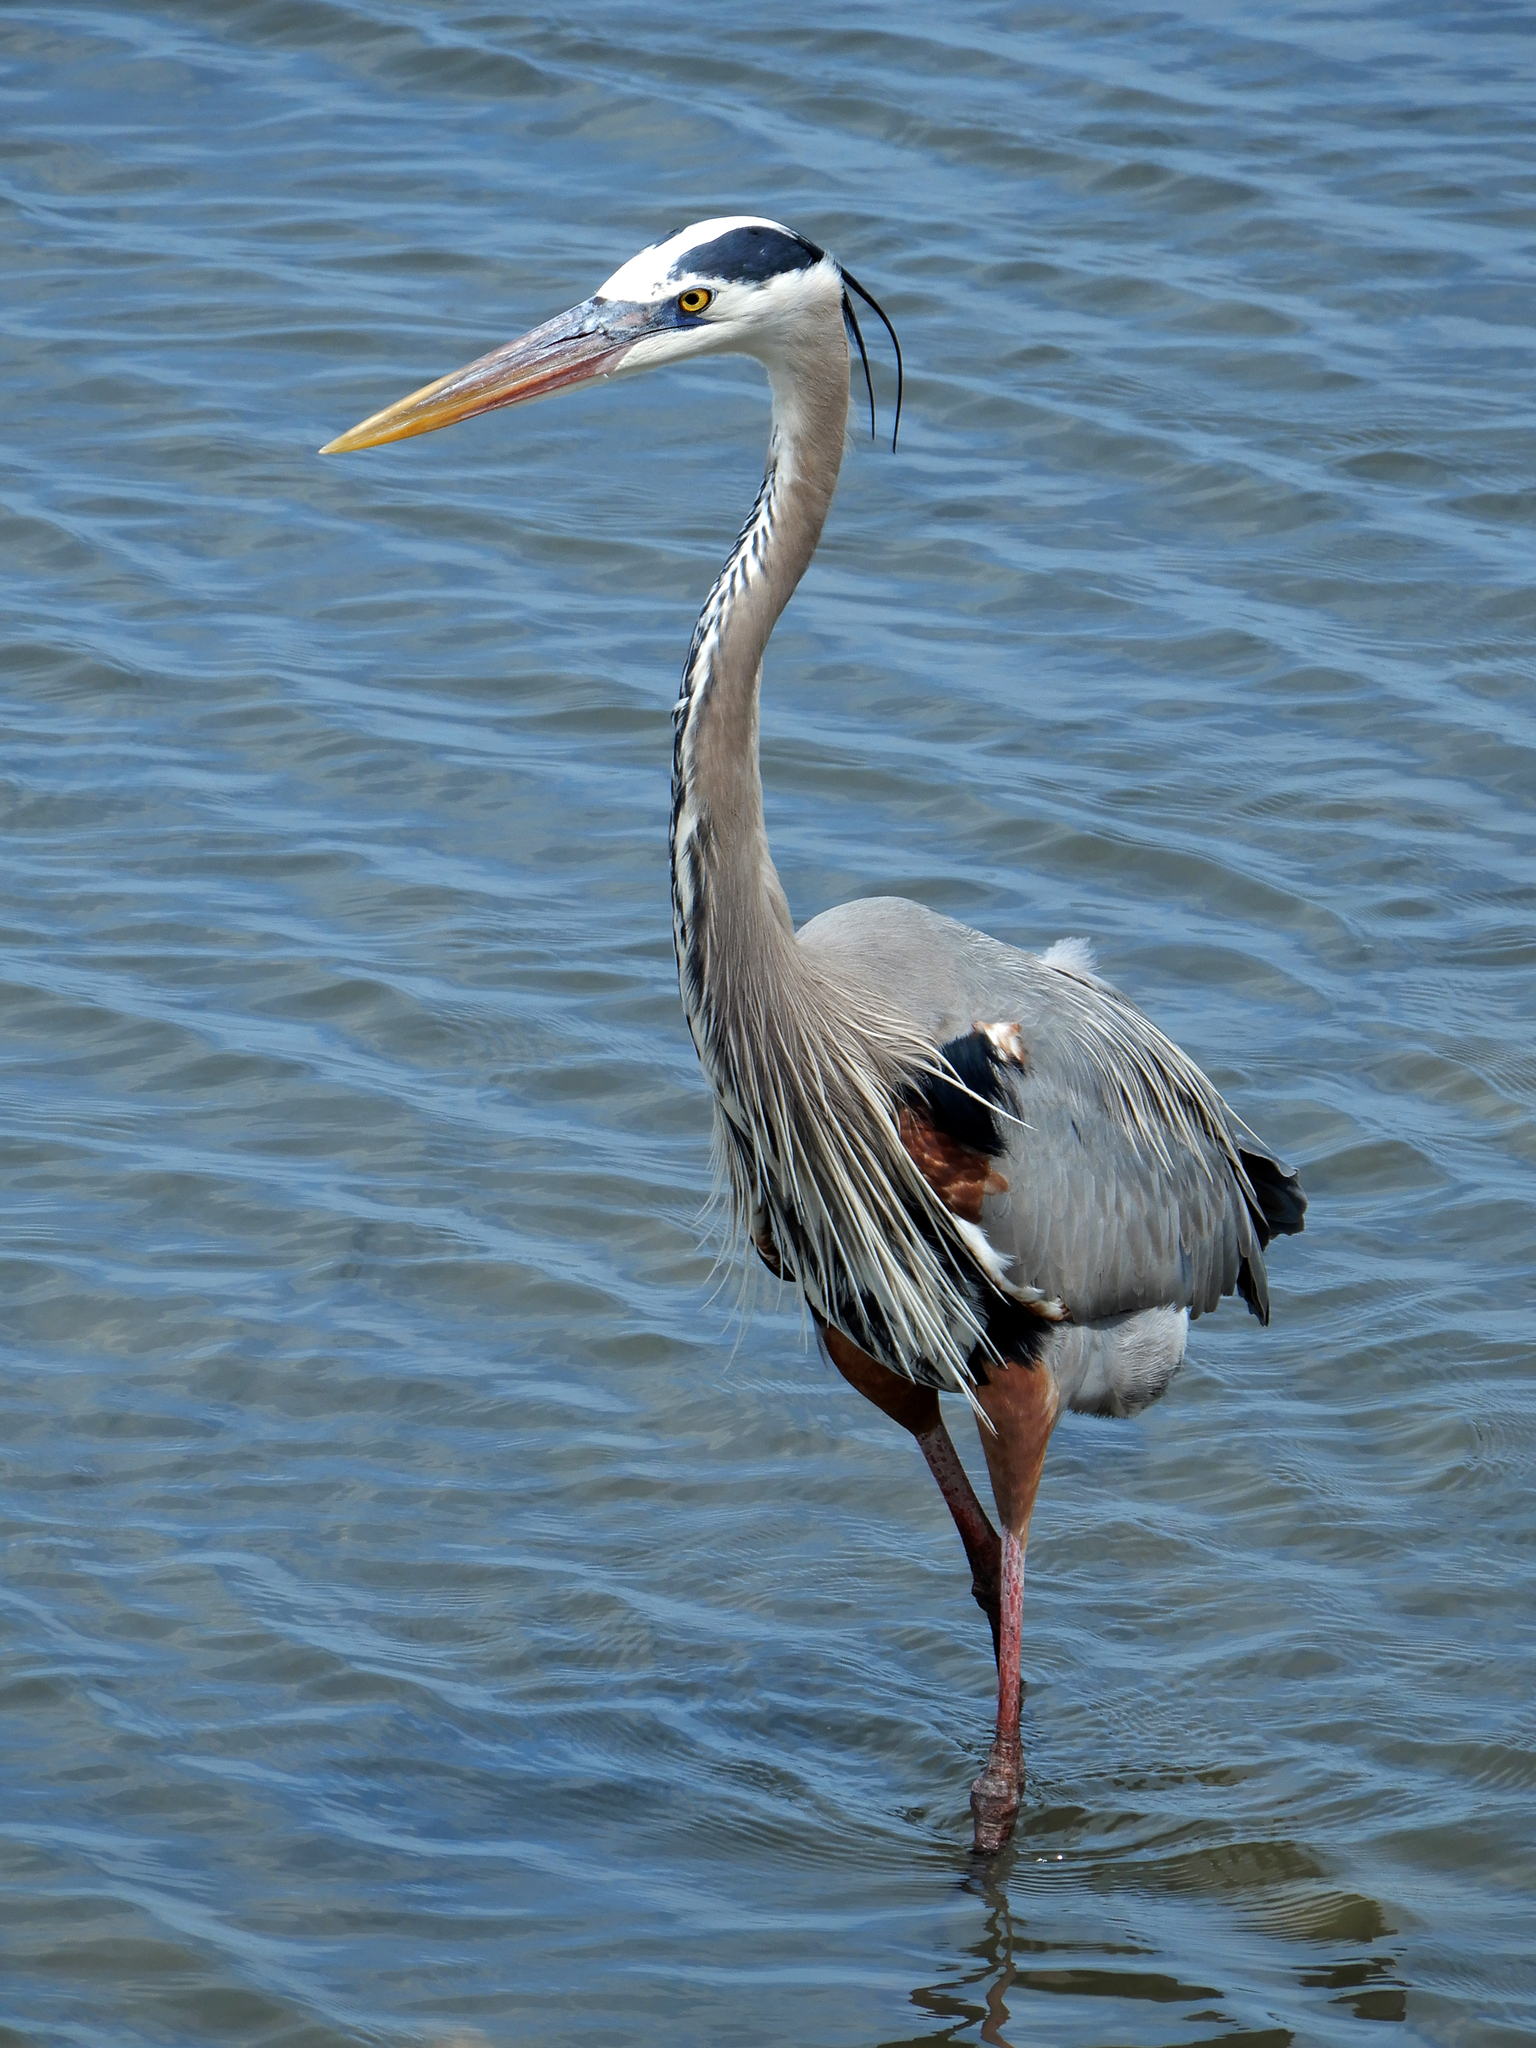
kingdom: Animalia
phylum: Chordata
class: Aves
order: Pelecaniformes
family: Ardeidae
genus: Ardea
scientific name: Ardea herodias
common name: Great blue heron
